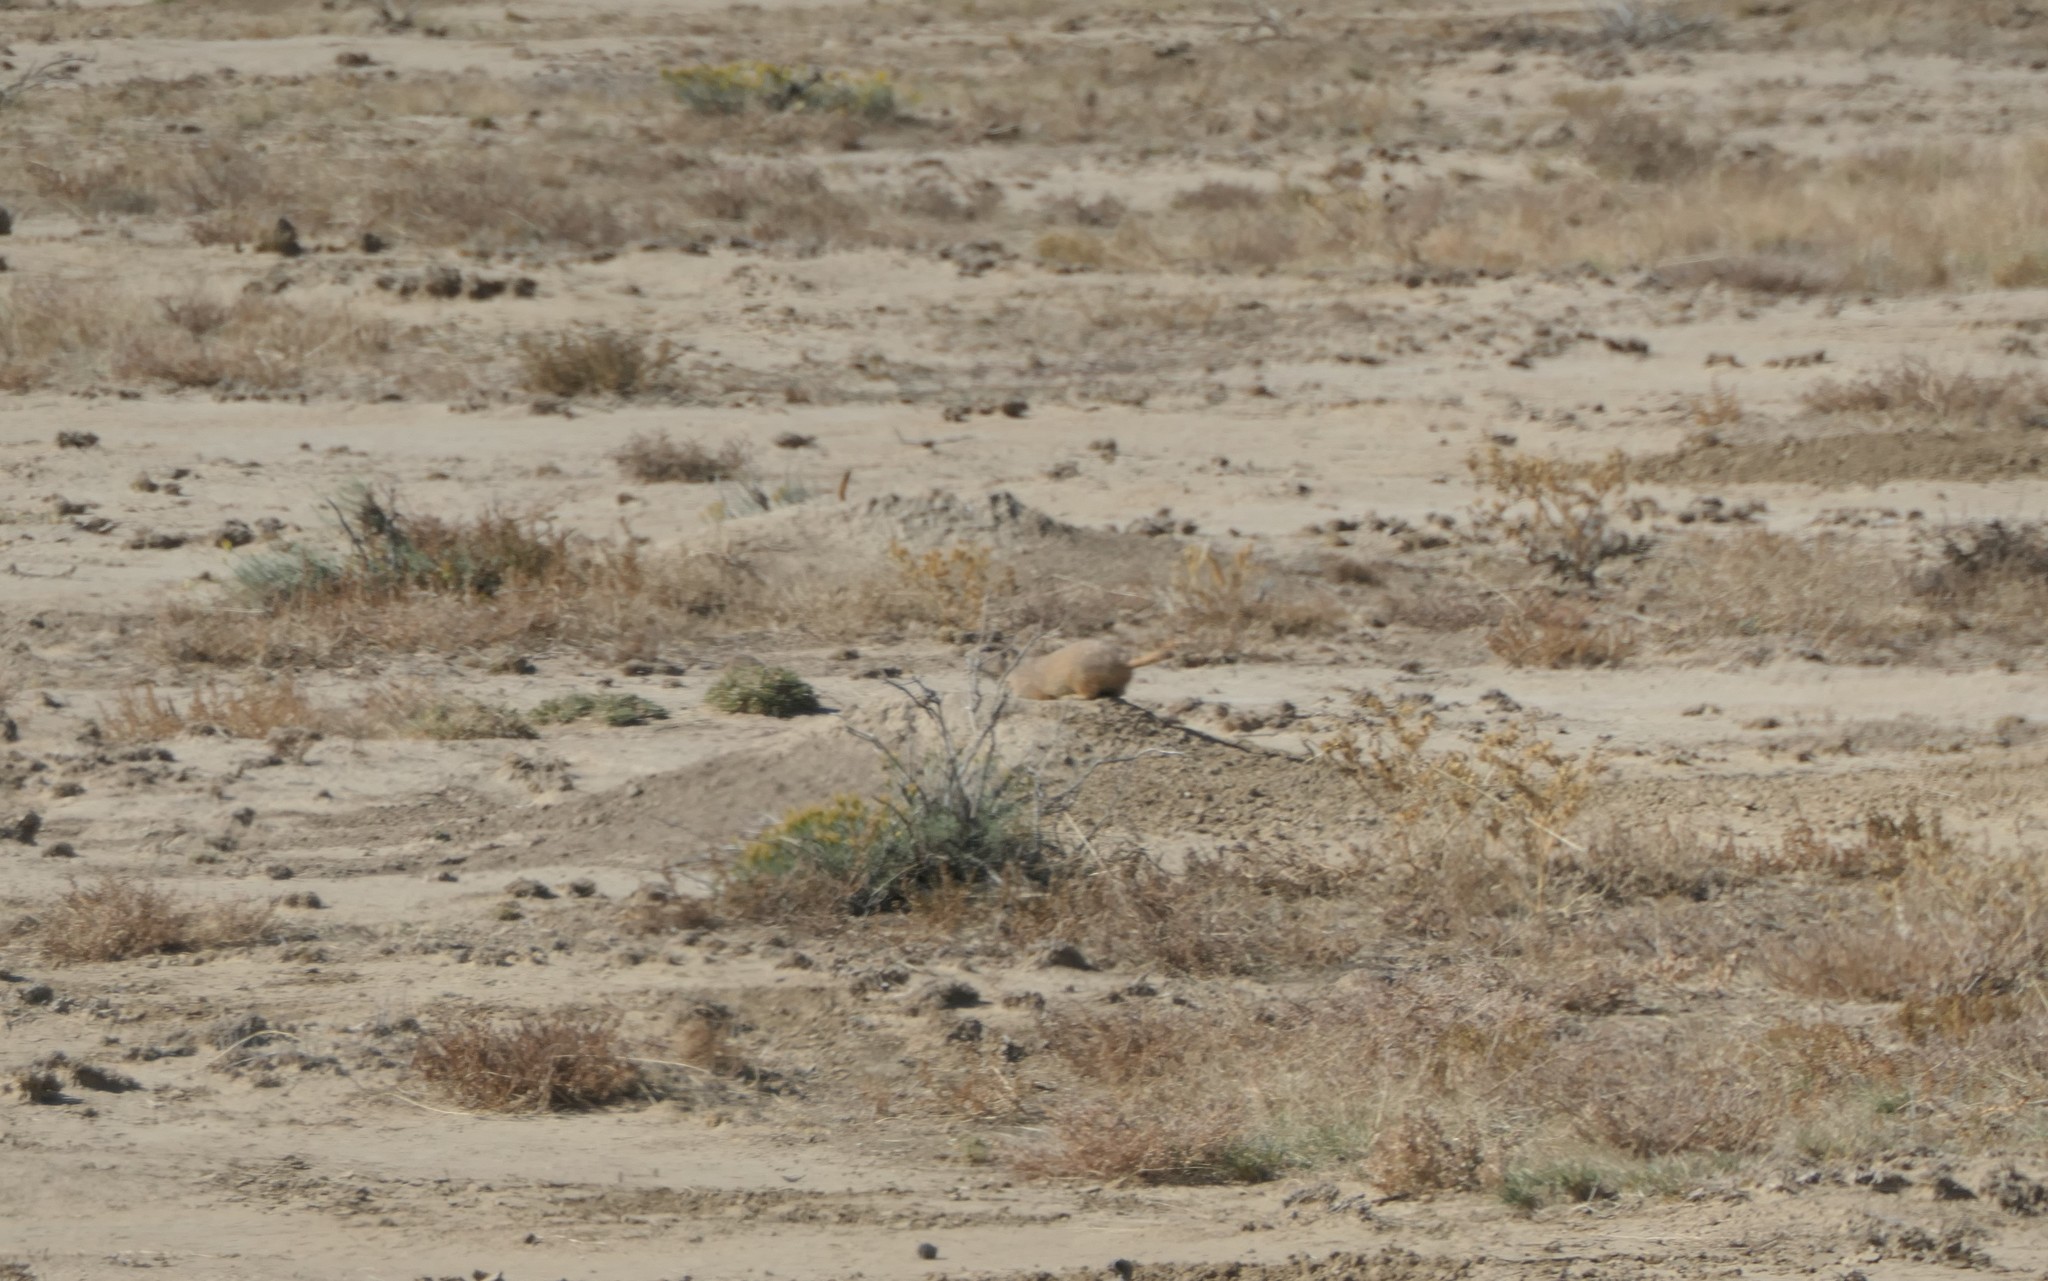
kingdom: Animalia
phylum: Chordata
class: Mammalia
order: Rodentia
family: Sciuridae
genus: Cynomys
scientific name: Cynomys ludovicianus
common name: Black-tailed prairie dog
